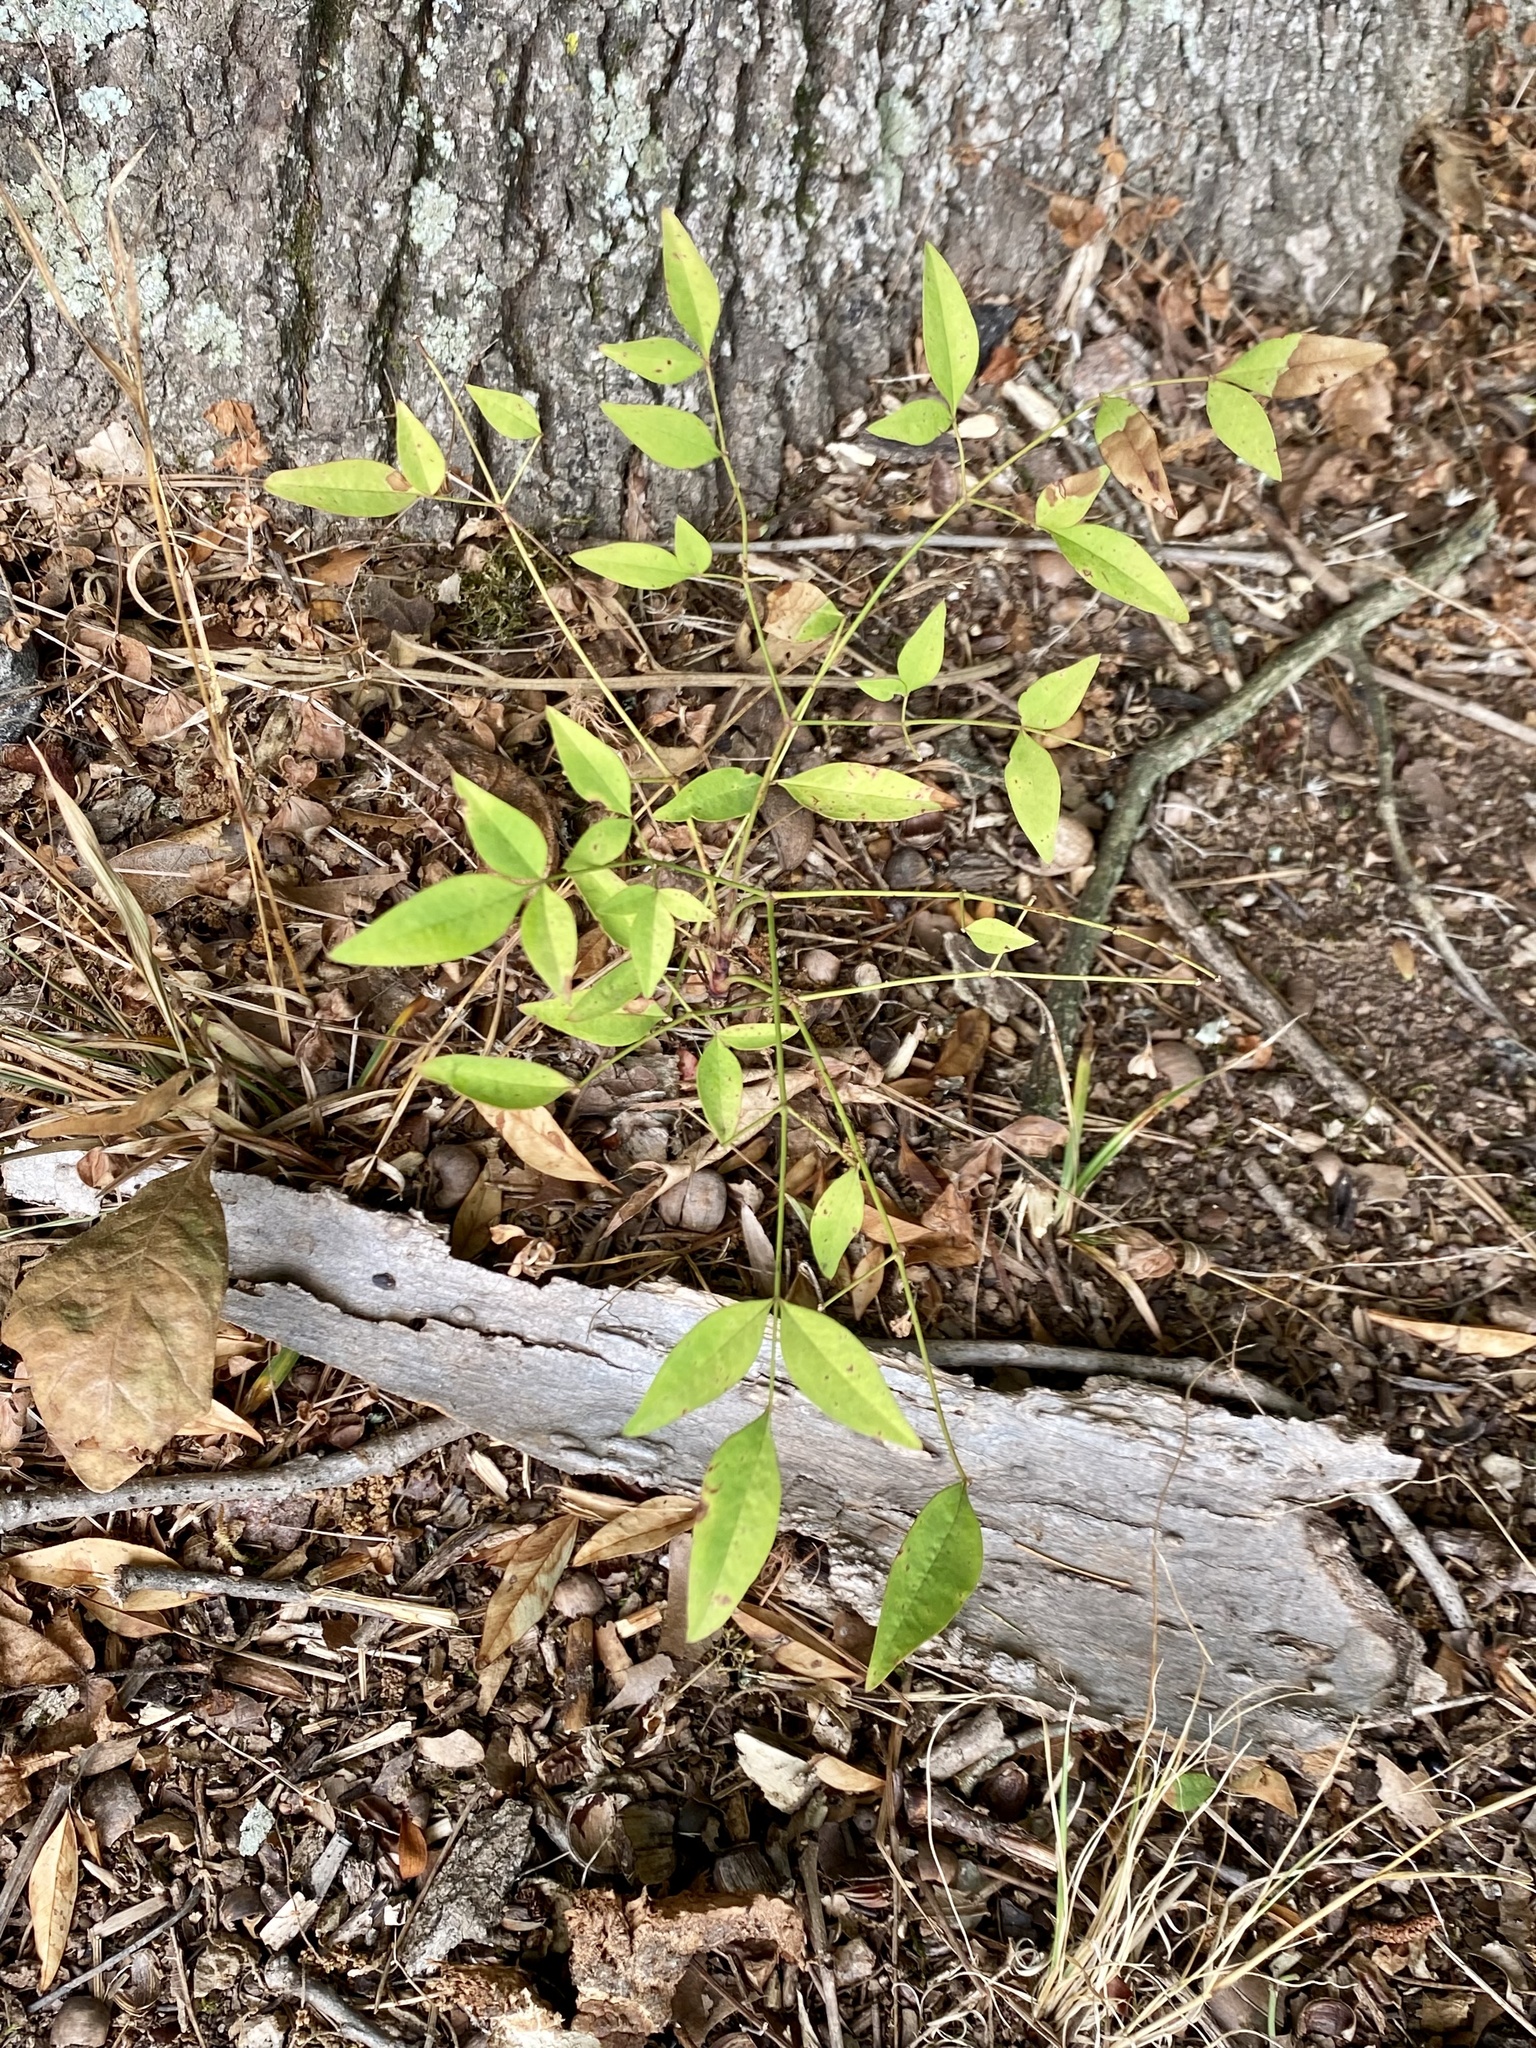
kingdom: Plantae
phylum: Tracheophyta
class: Magnoliopsida
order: Ranunculales
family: Berberidaceae
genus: Nandina
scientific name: Nandina domestica
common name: Sacred bamboo
